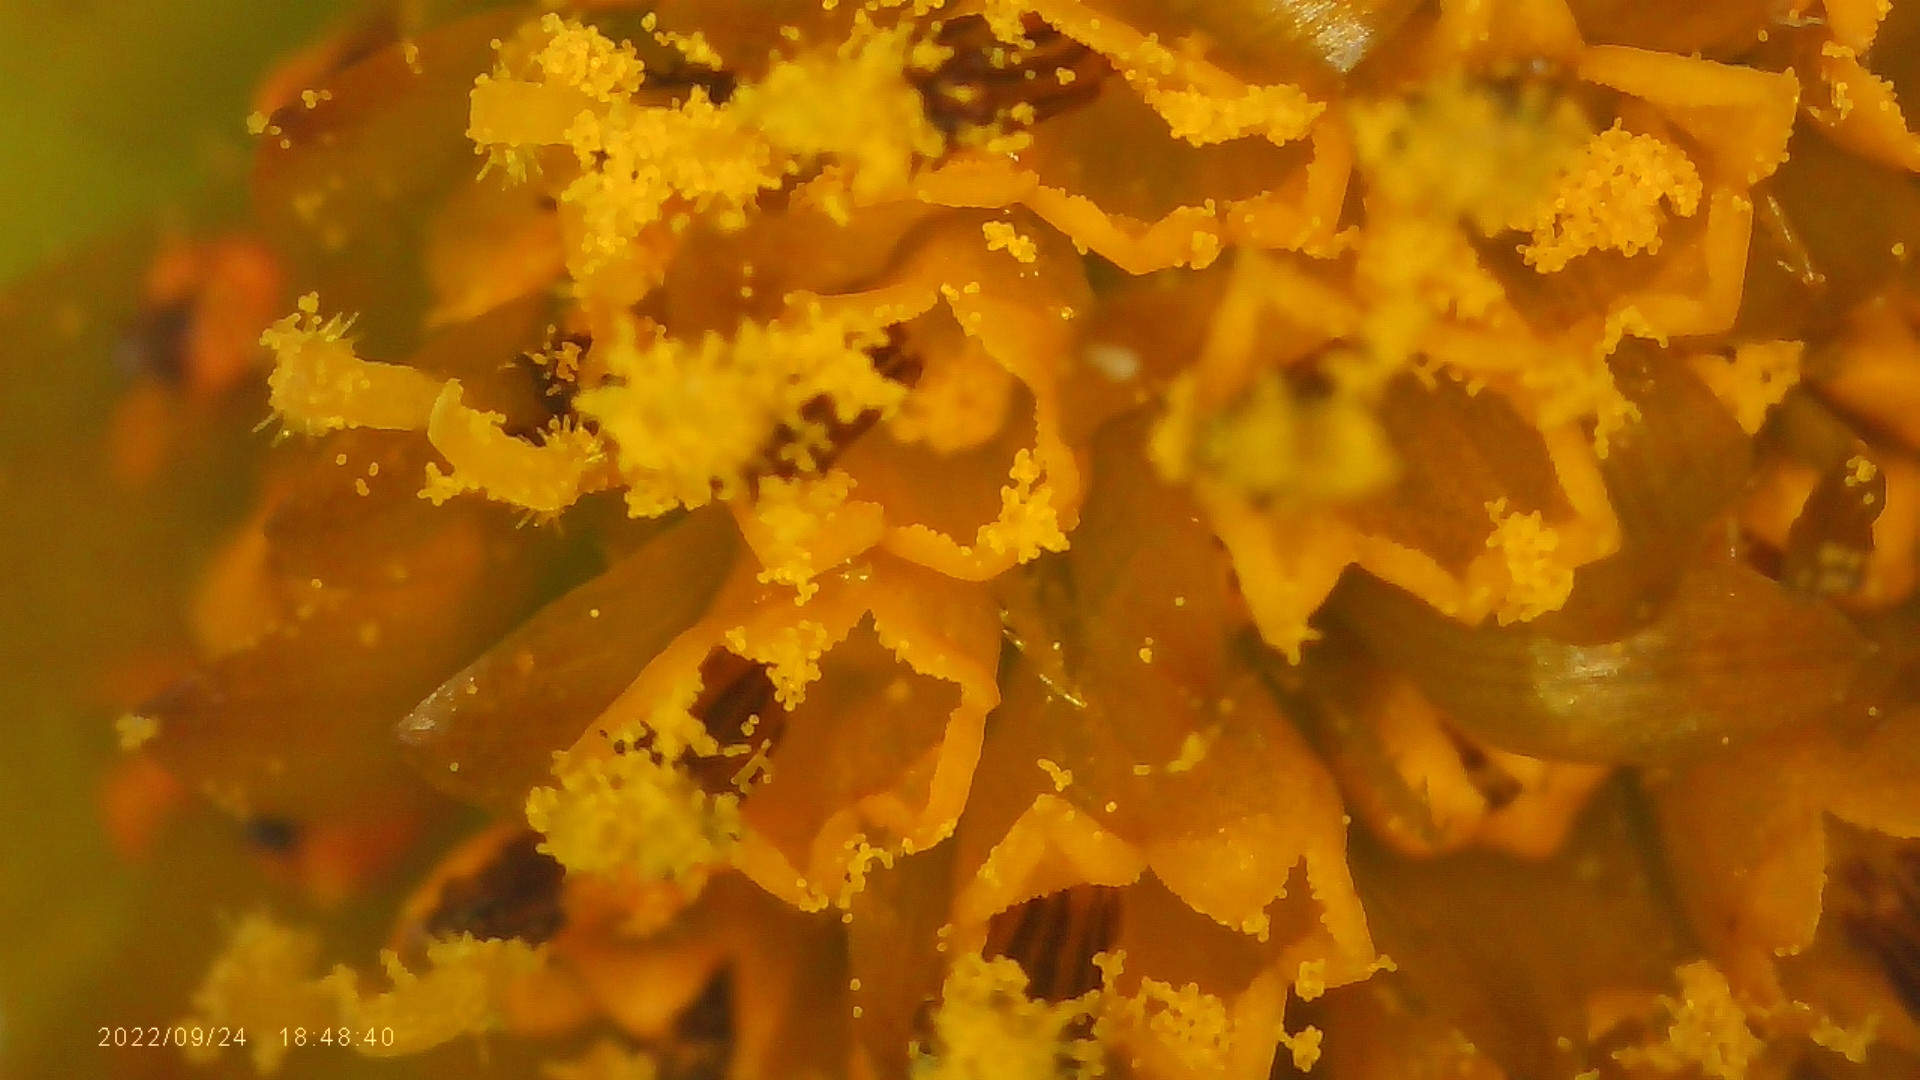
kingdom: Plantae
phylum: Tracheophyta
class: Magnoliopsida
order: Asterales
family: Asteraceae
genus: Bidens
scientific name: Bidens connata
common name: London bur-marigold
